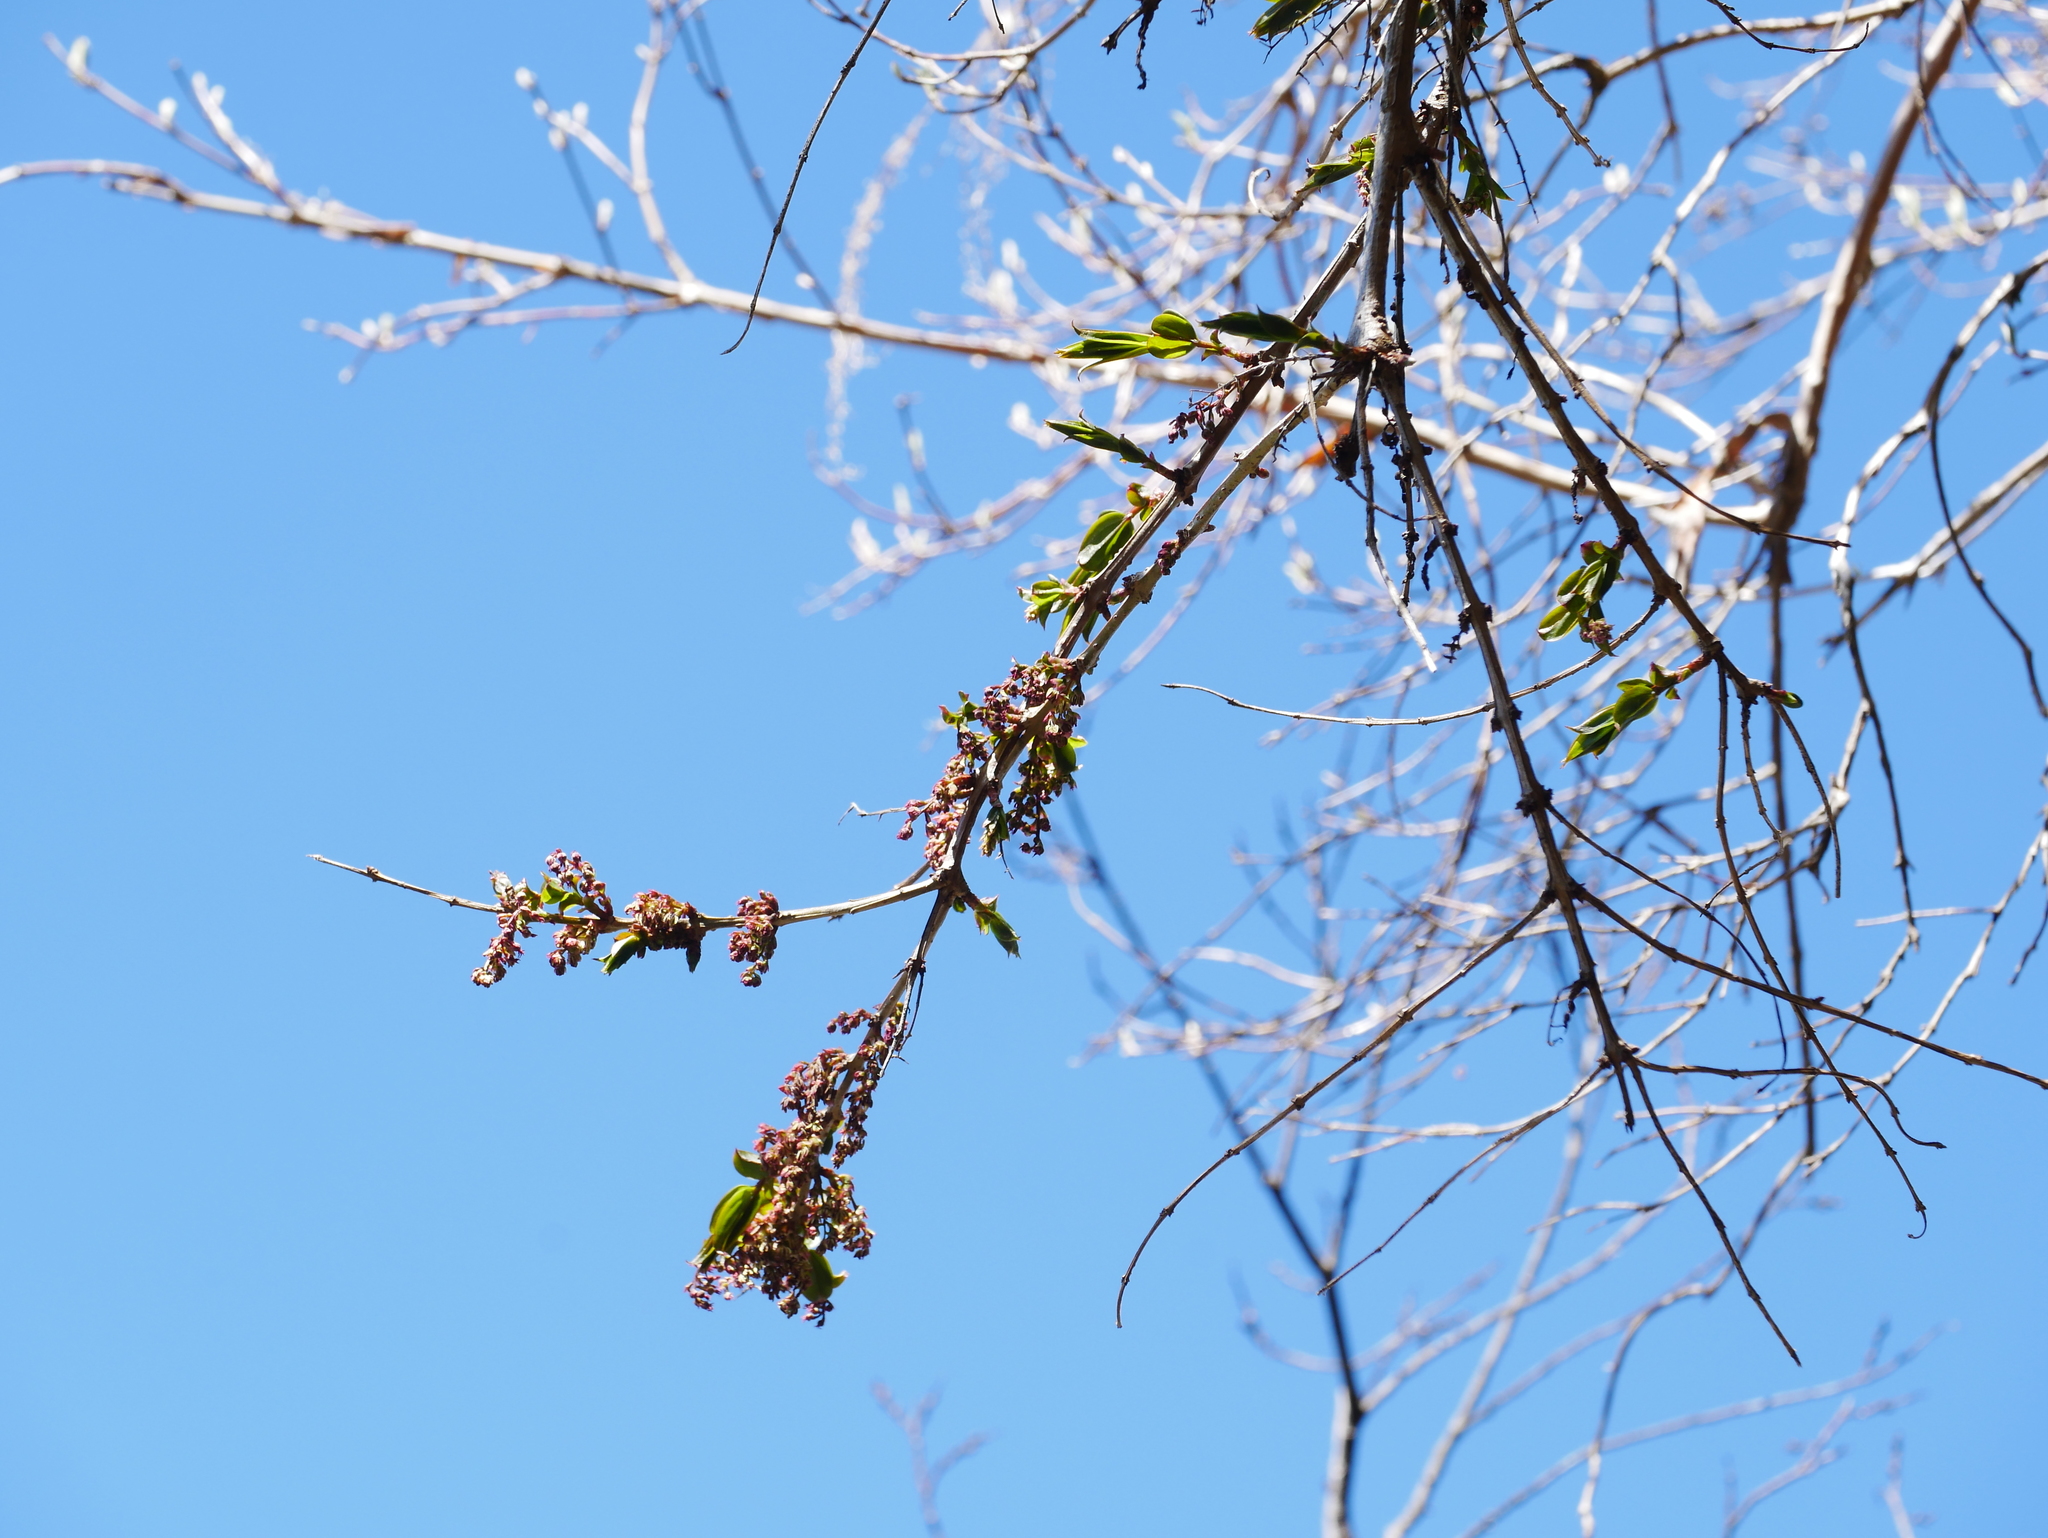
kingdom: Plantae
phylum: Tracheophyta
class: Magnoliopsida
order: Cucurbitales
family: Coriariaceae
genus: Coriaria
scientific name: Coriaria japonica
